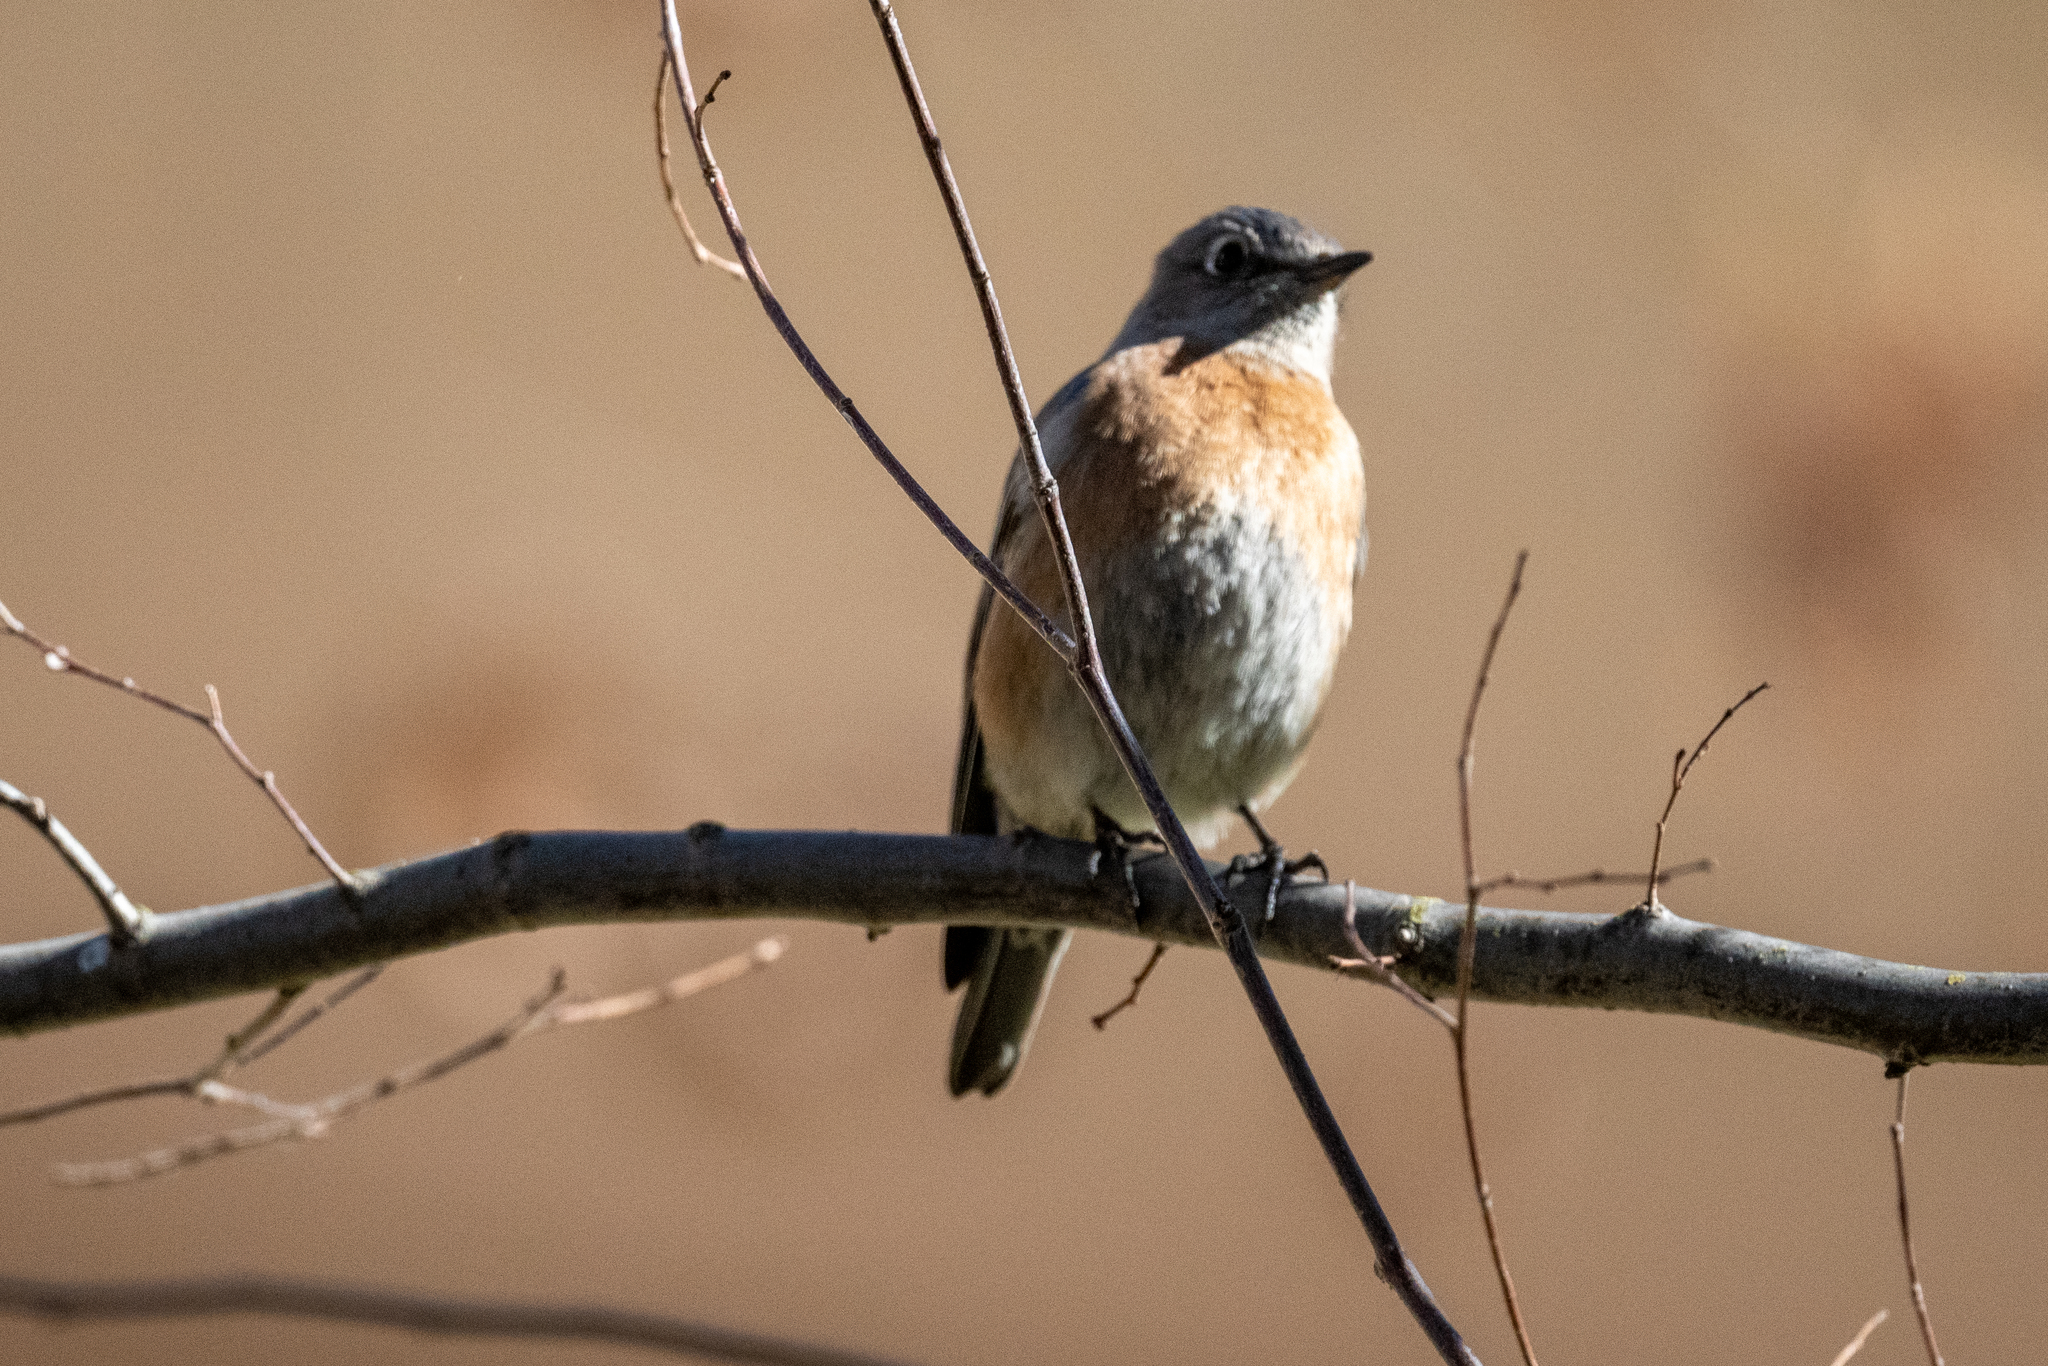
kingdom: Animalia
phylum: Chordata
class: Aves
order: Passeriformes
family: Turdidae
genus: Sialia
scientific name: Sialia mexicana
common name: Western bluebird
